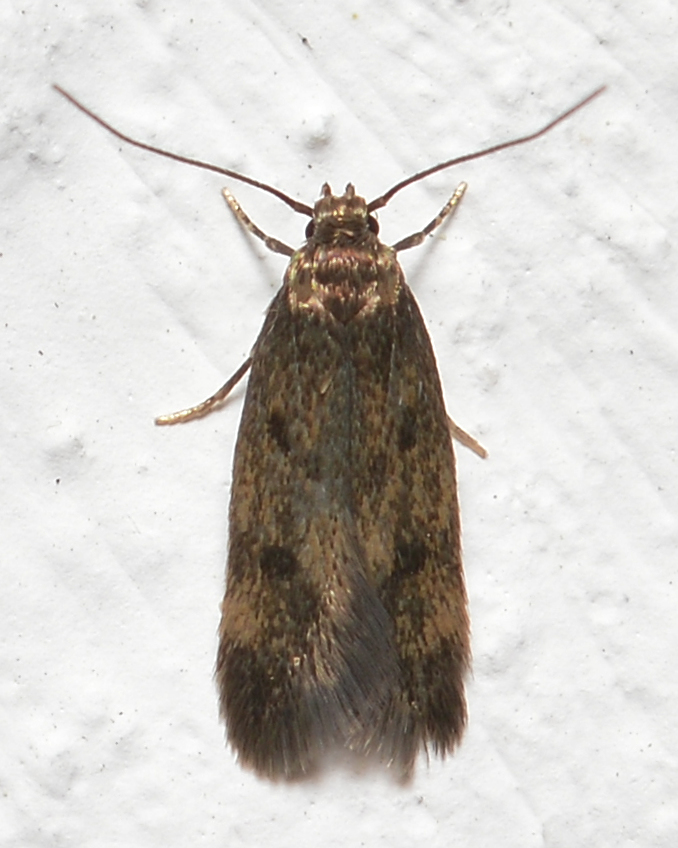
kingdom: Animalia
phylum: Arthropoda
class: Insecta
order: Lepidoptera
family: Oecophoridae
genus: Borkhausenia
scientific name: Borkhausenia fuscescens
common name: Small dingy tubic
